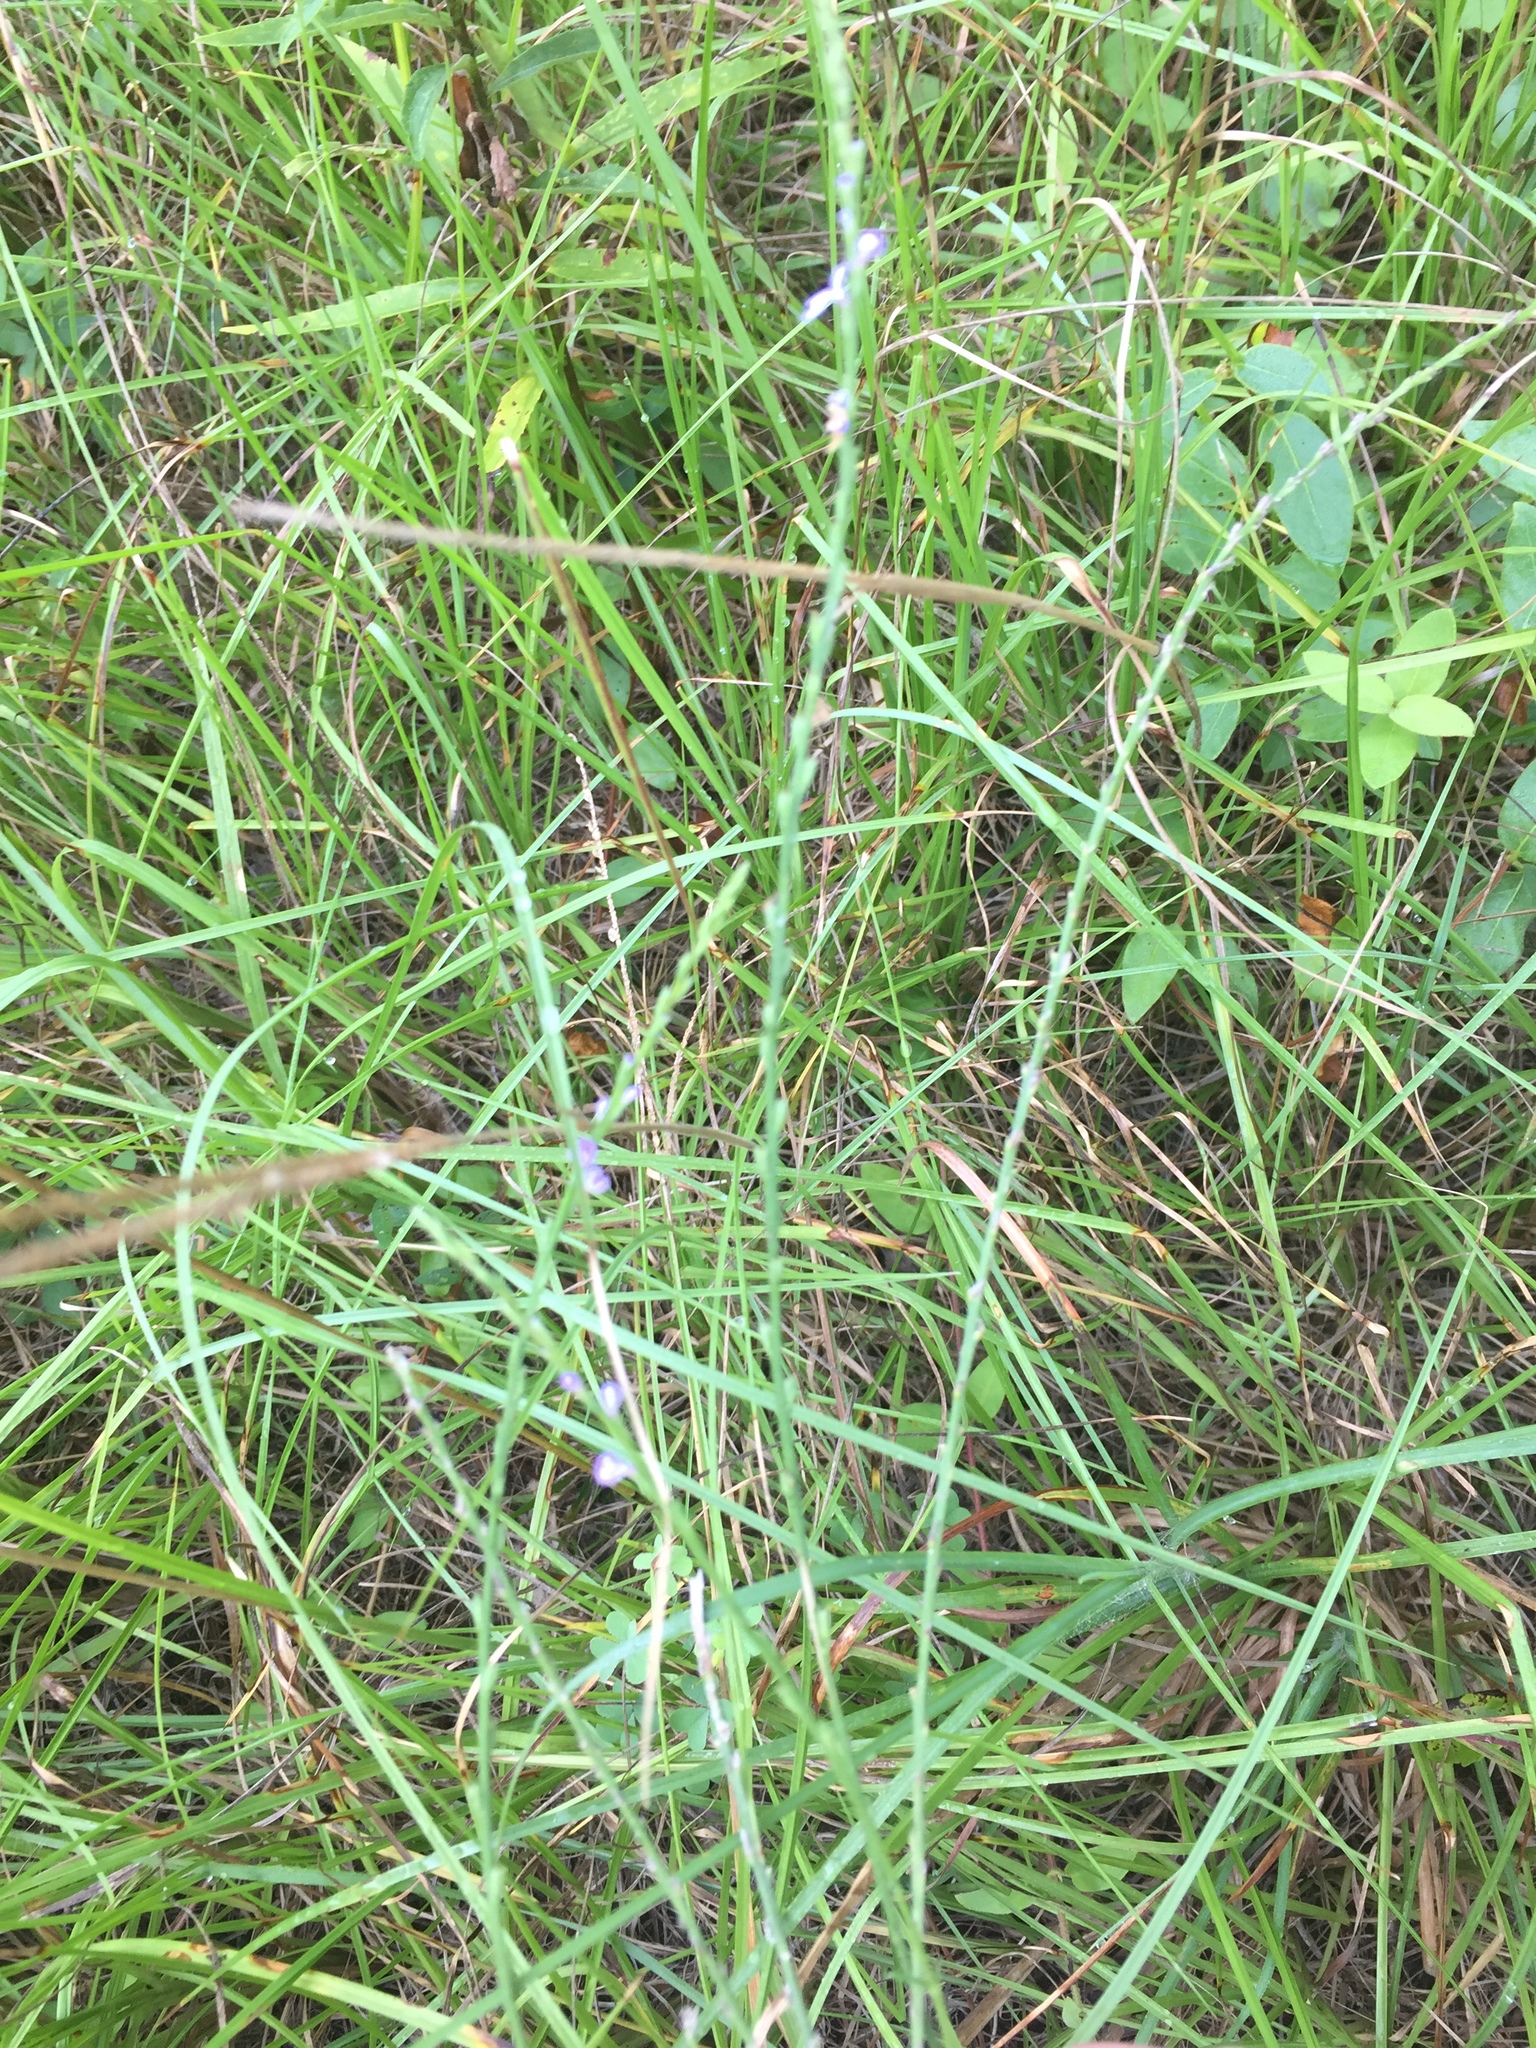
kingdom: Plantae
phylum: Tracheophyta
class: Magnoliopsida
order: Lamiales
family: Verbenaceae
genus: Verbena
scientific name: Verbena halei
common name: Texas vervain
